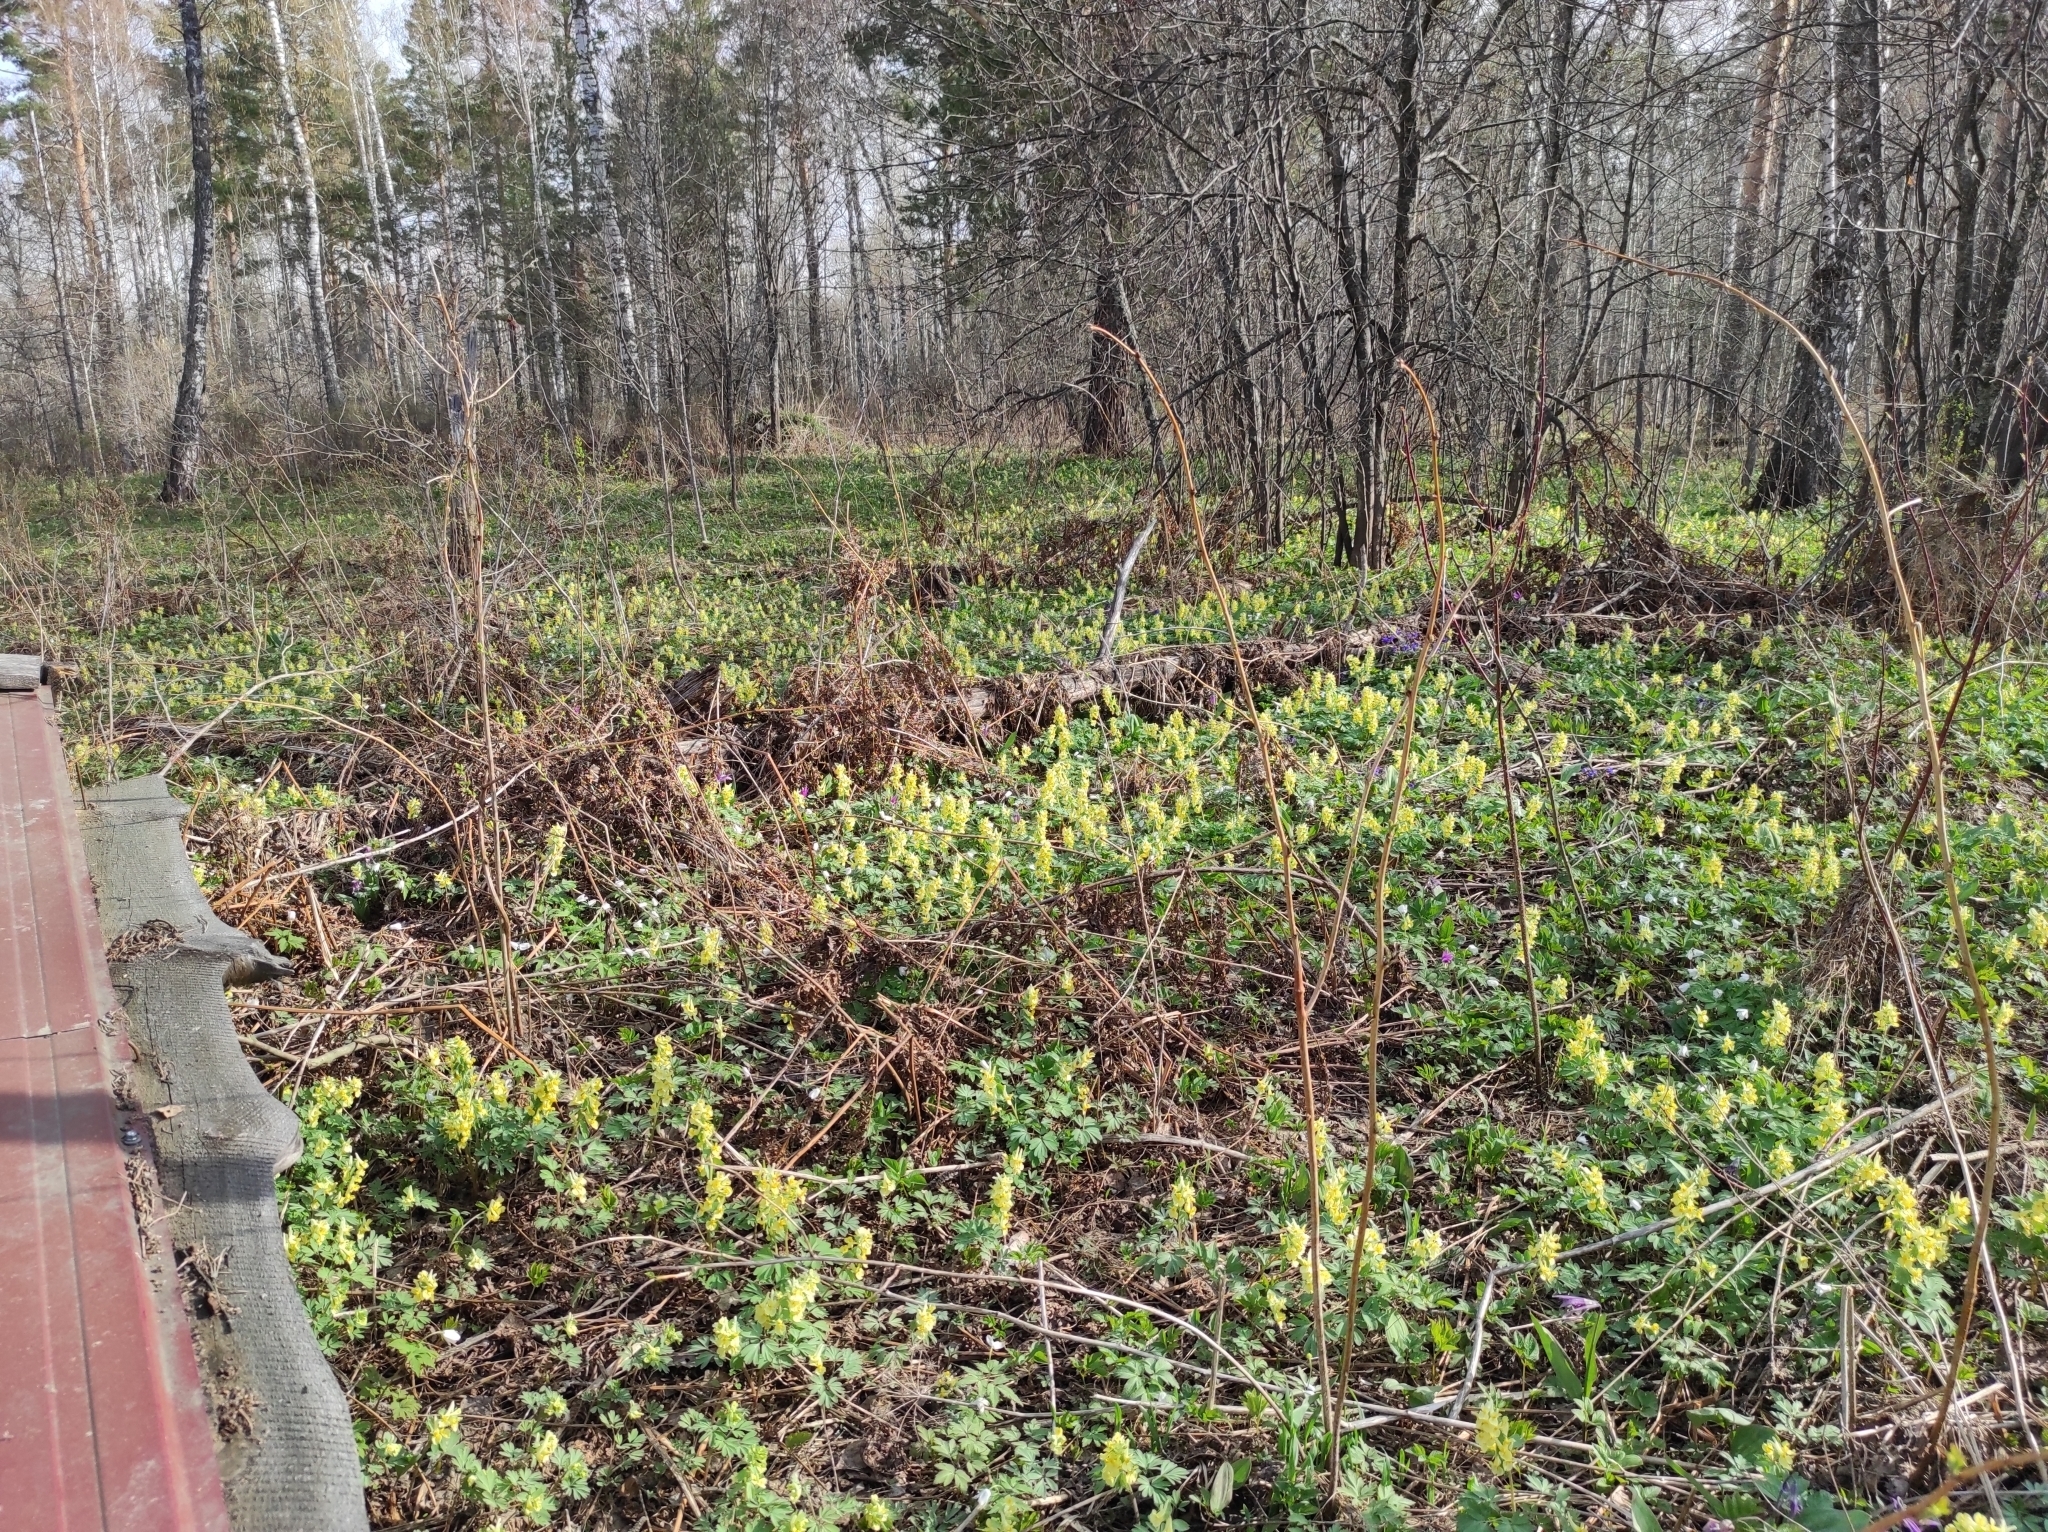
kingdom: Plantae
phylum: Tracheophyta
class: Liliopsida
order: Liliales
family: Liliaceae
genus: Erythronium
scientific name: Erythronium sibiricum
